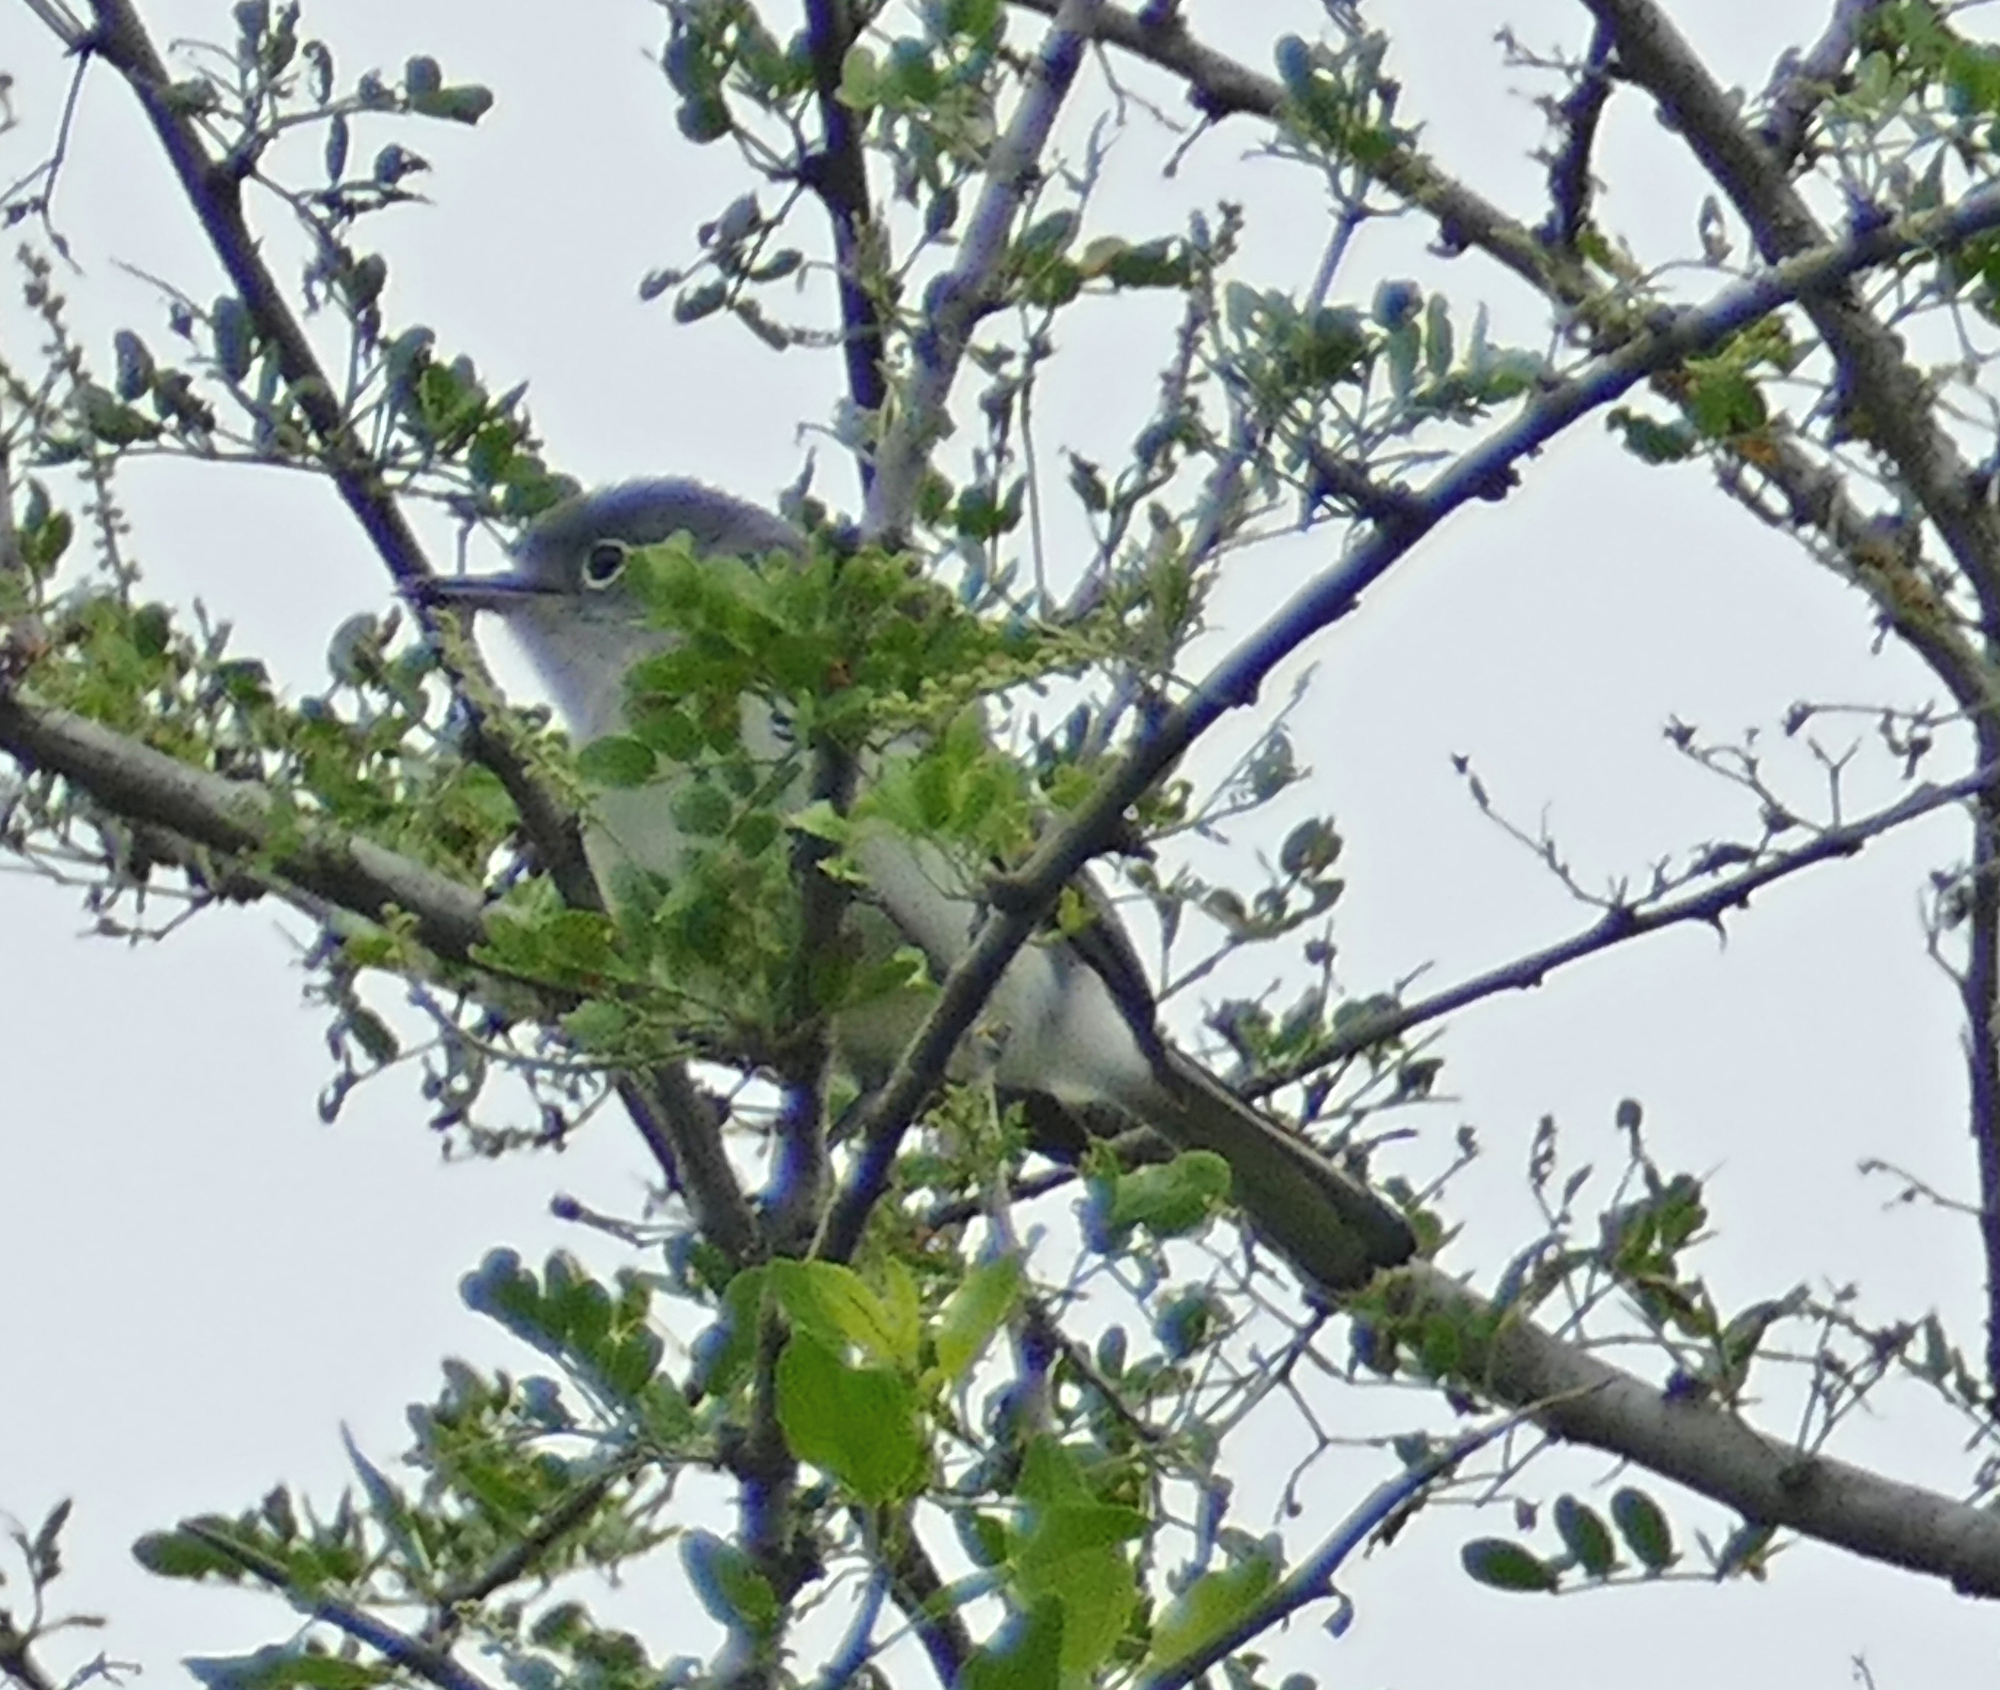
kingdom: Animalia
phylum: Chordata
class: Aves
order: Passeriformes
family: Polioptilidae
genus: Polioptila
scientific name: Polioptila caerulea
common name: Blue-gray gnatcatcher
